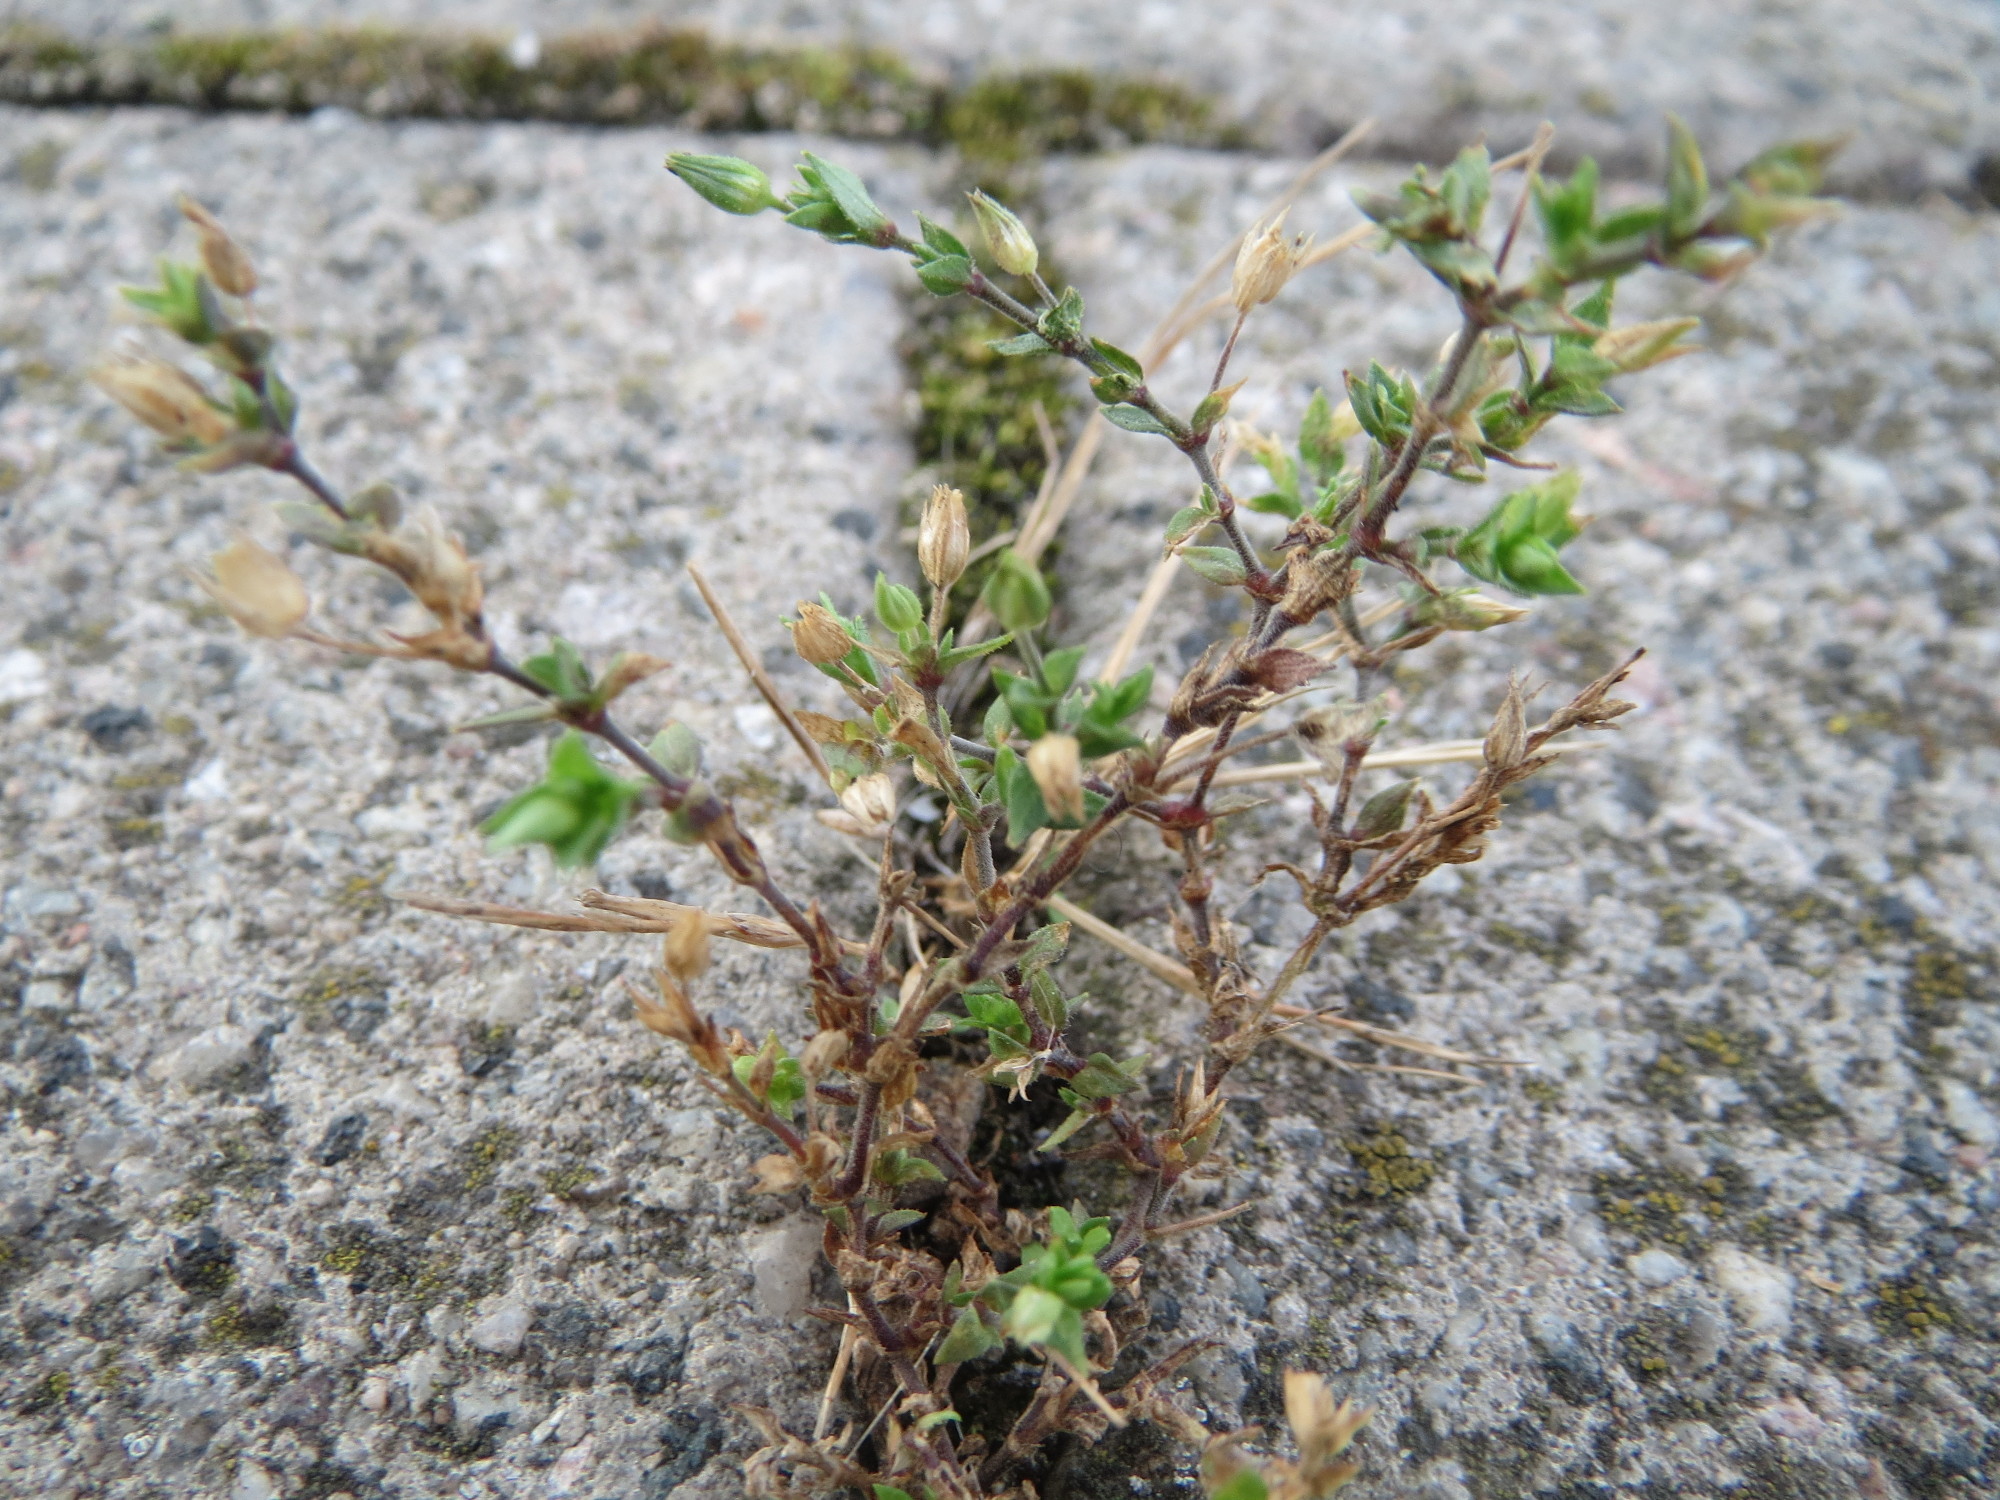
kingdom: Plantae
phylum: Tracheophyta
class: Magnoliopsida
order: Caryophyllales
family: Caryophyllaceae
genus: Arenaria
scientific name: Arenaria serpyllifolia
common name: Thyme-leaved sandwort
